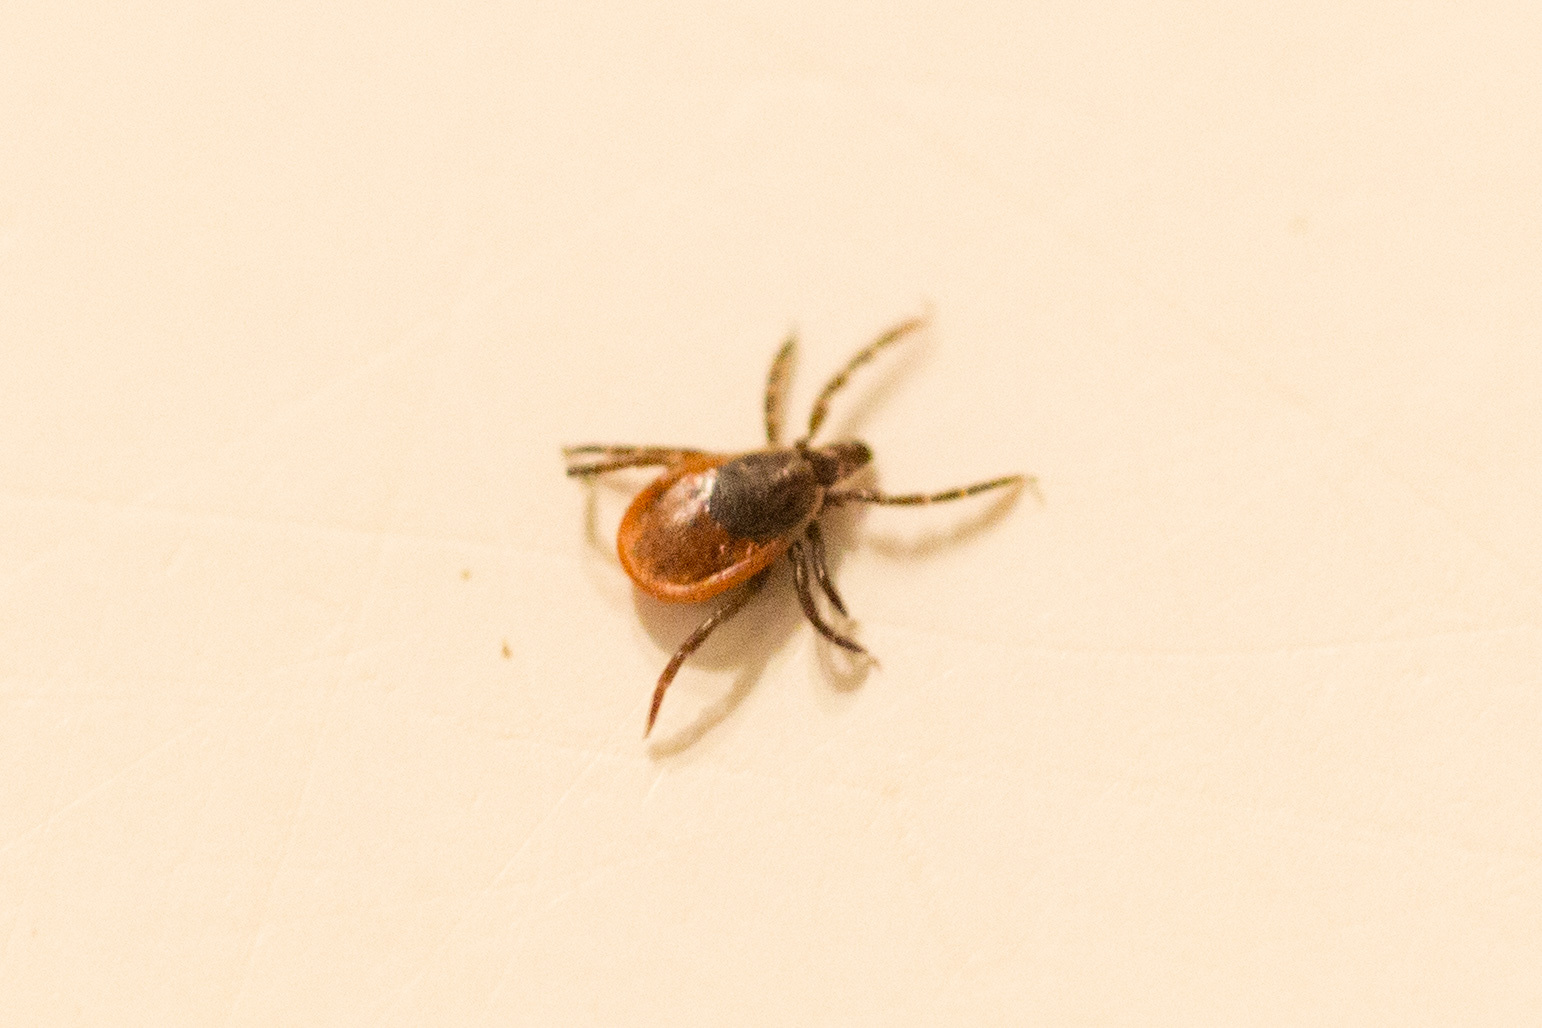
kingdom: Animalia
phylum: Arthropoda
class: Arachnida
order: Ixodida
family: Ixodidae
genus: Ixodes
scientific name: Ixodes scapularis
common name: Black legged tick
